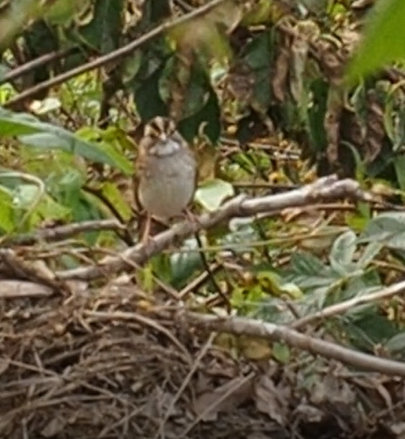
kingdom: Animalia
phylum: Chordata
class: Aves
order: Passeriformes
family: Passerellidae
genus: Zonotrichia
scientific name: Zonotrichia albicollis
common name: White-throated sparrow
